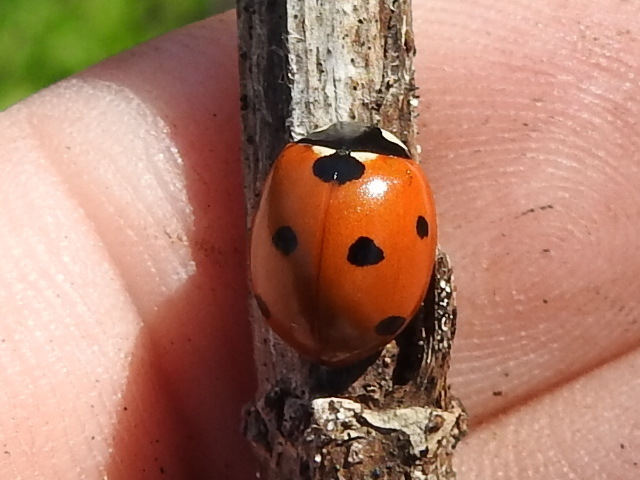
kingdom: Animalia
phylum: Arthropoda
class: Insecta
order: Coleoptera
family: Coccinellidae
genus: Coccinella
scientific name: Coccinella septempunctata
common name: Sevenspotted lady beetle
